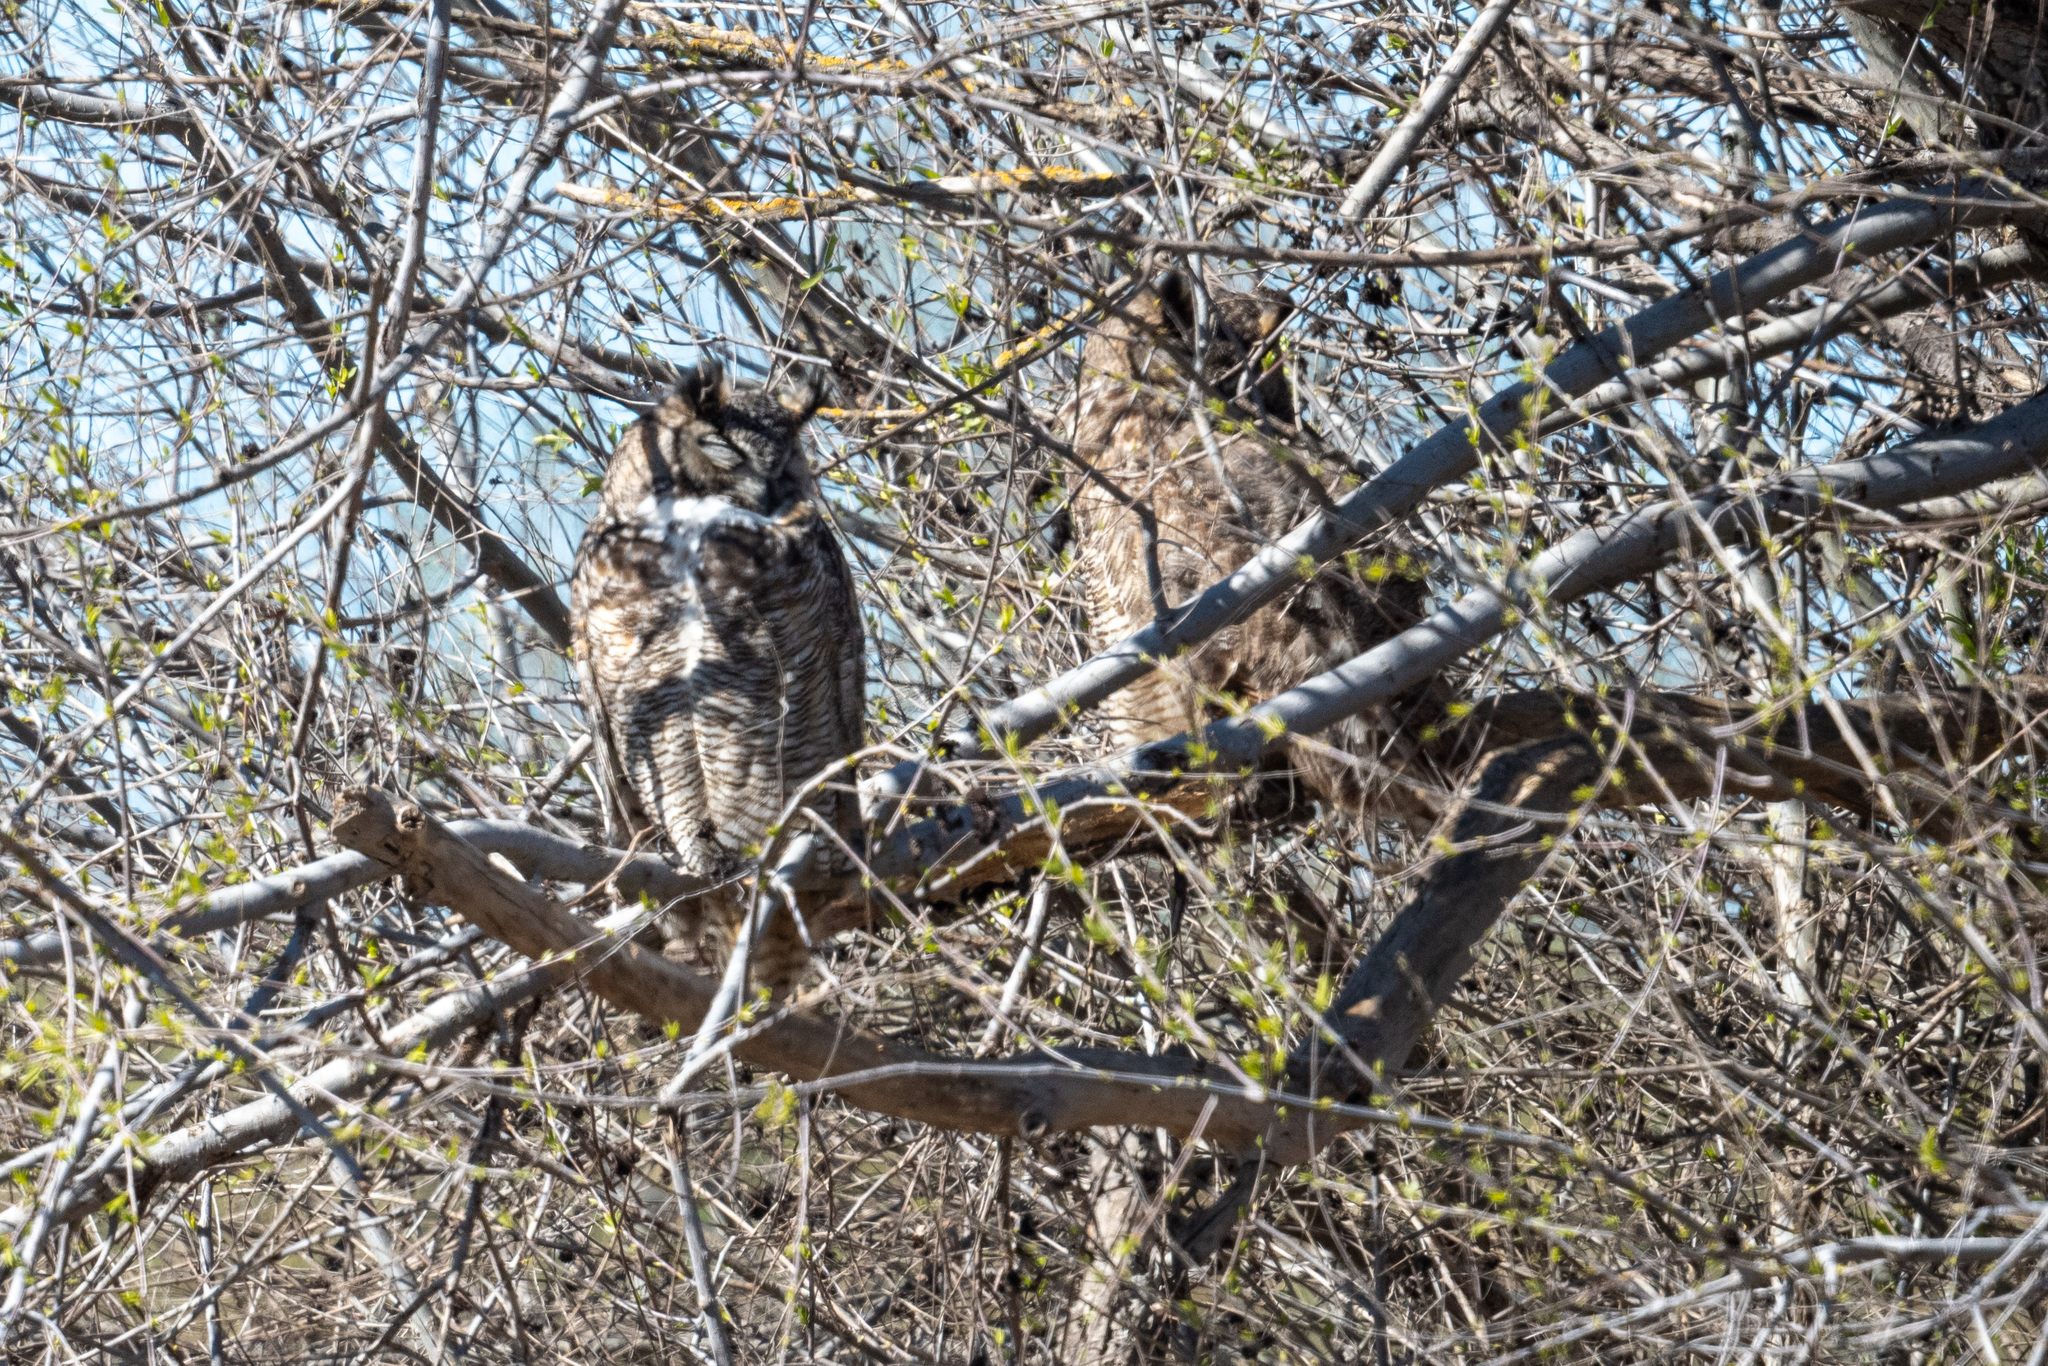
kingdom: Animalia
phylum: Chordata
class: Aves
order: Strigiformes
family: Strigidae
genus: Bubo
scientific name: Bubo virginianus
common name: Great horned owl
